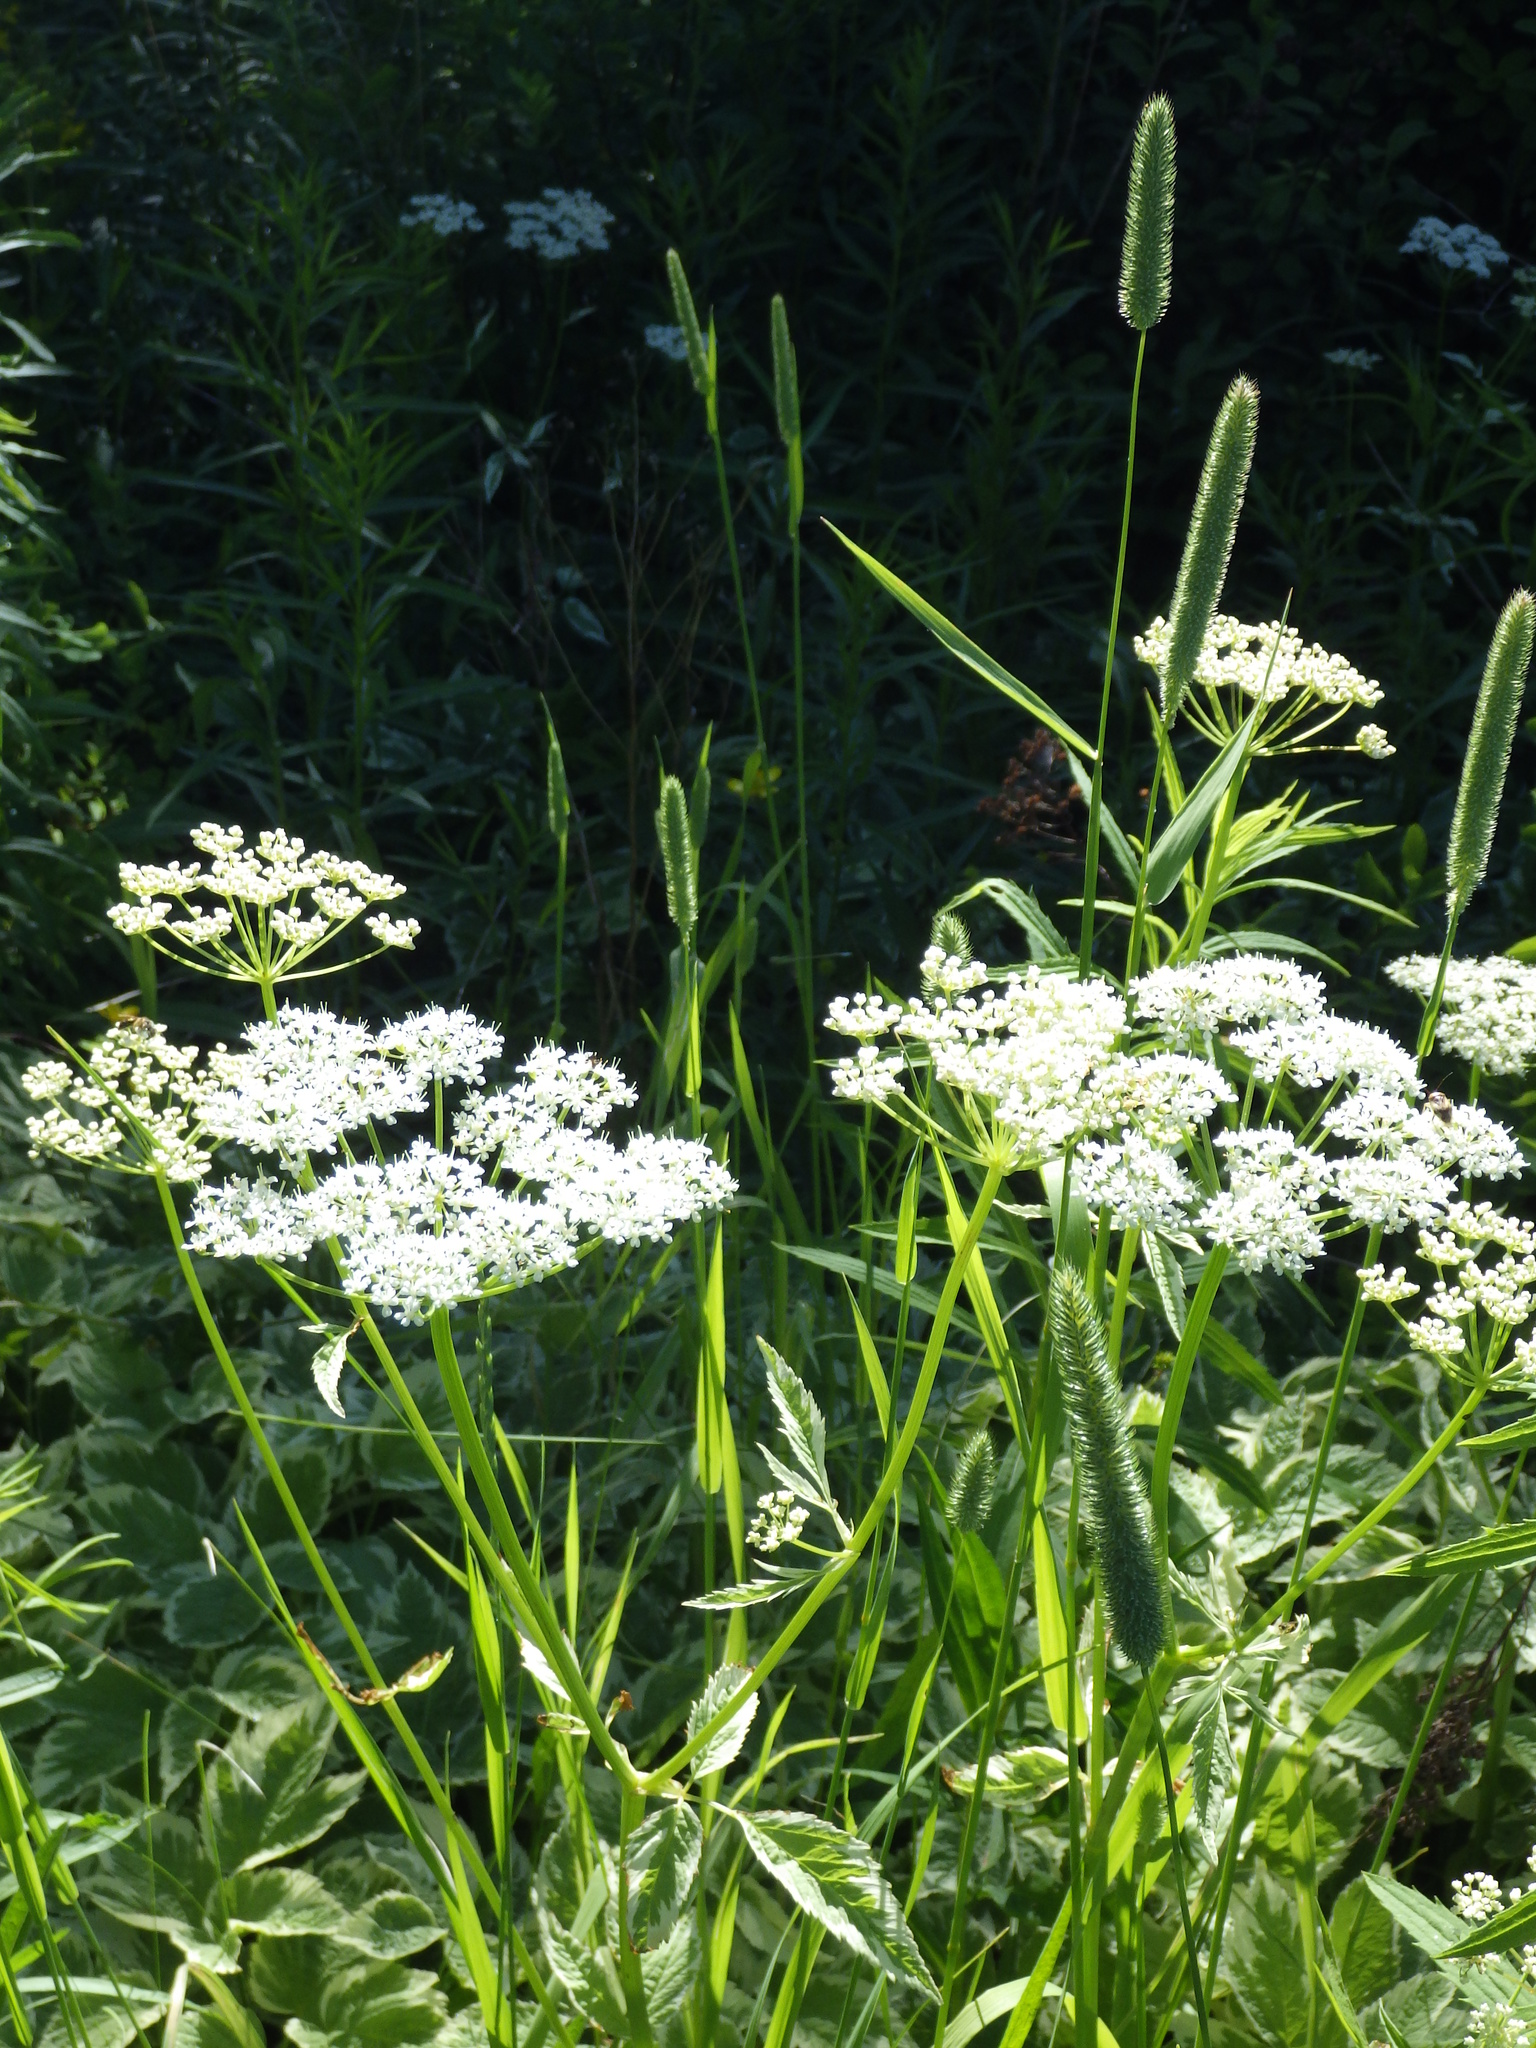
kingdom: Plantae
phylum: Tracheophyta
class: Magnoliopsida
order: Apiales
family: Apiaceae
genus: Aegopodium
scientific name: Aegopodium podagraria
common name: Ground-elder
